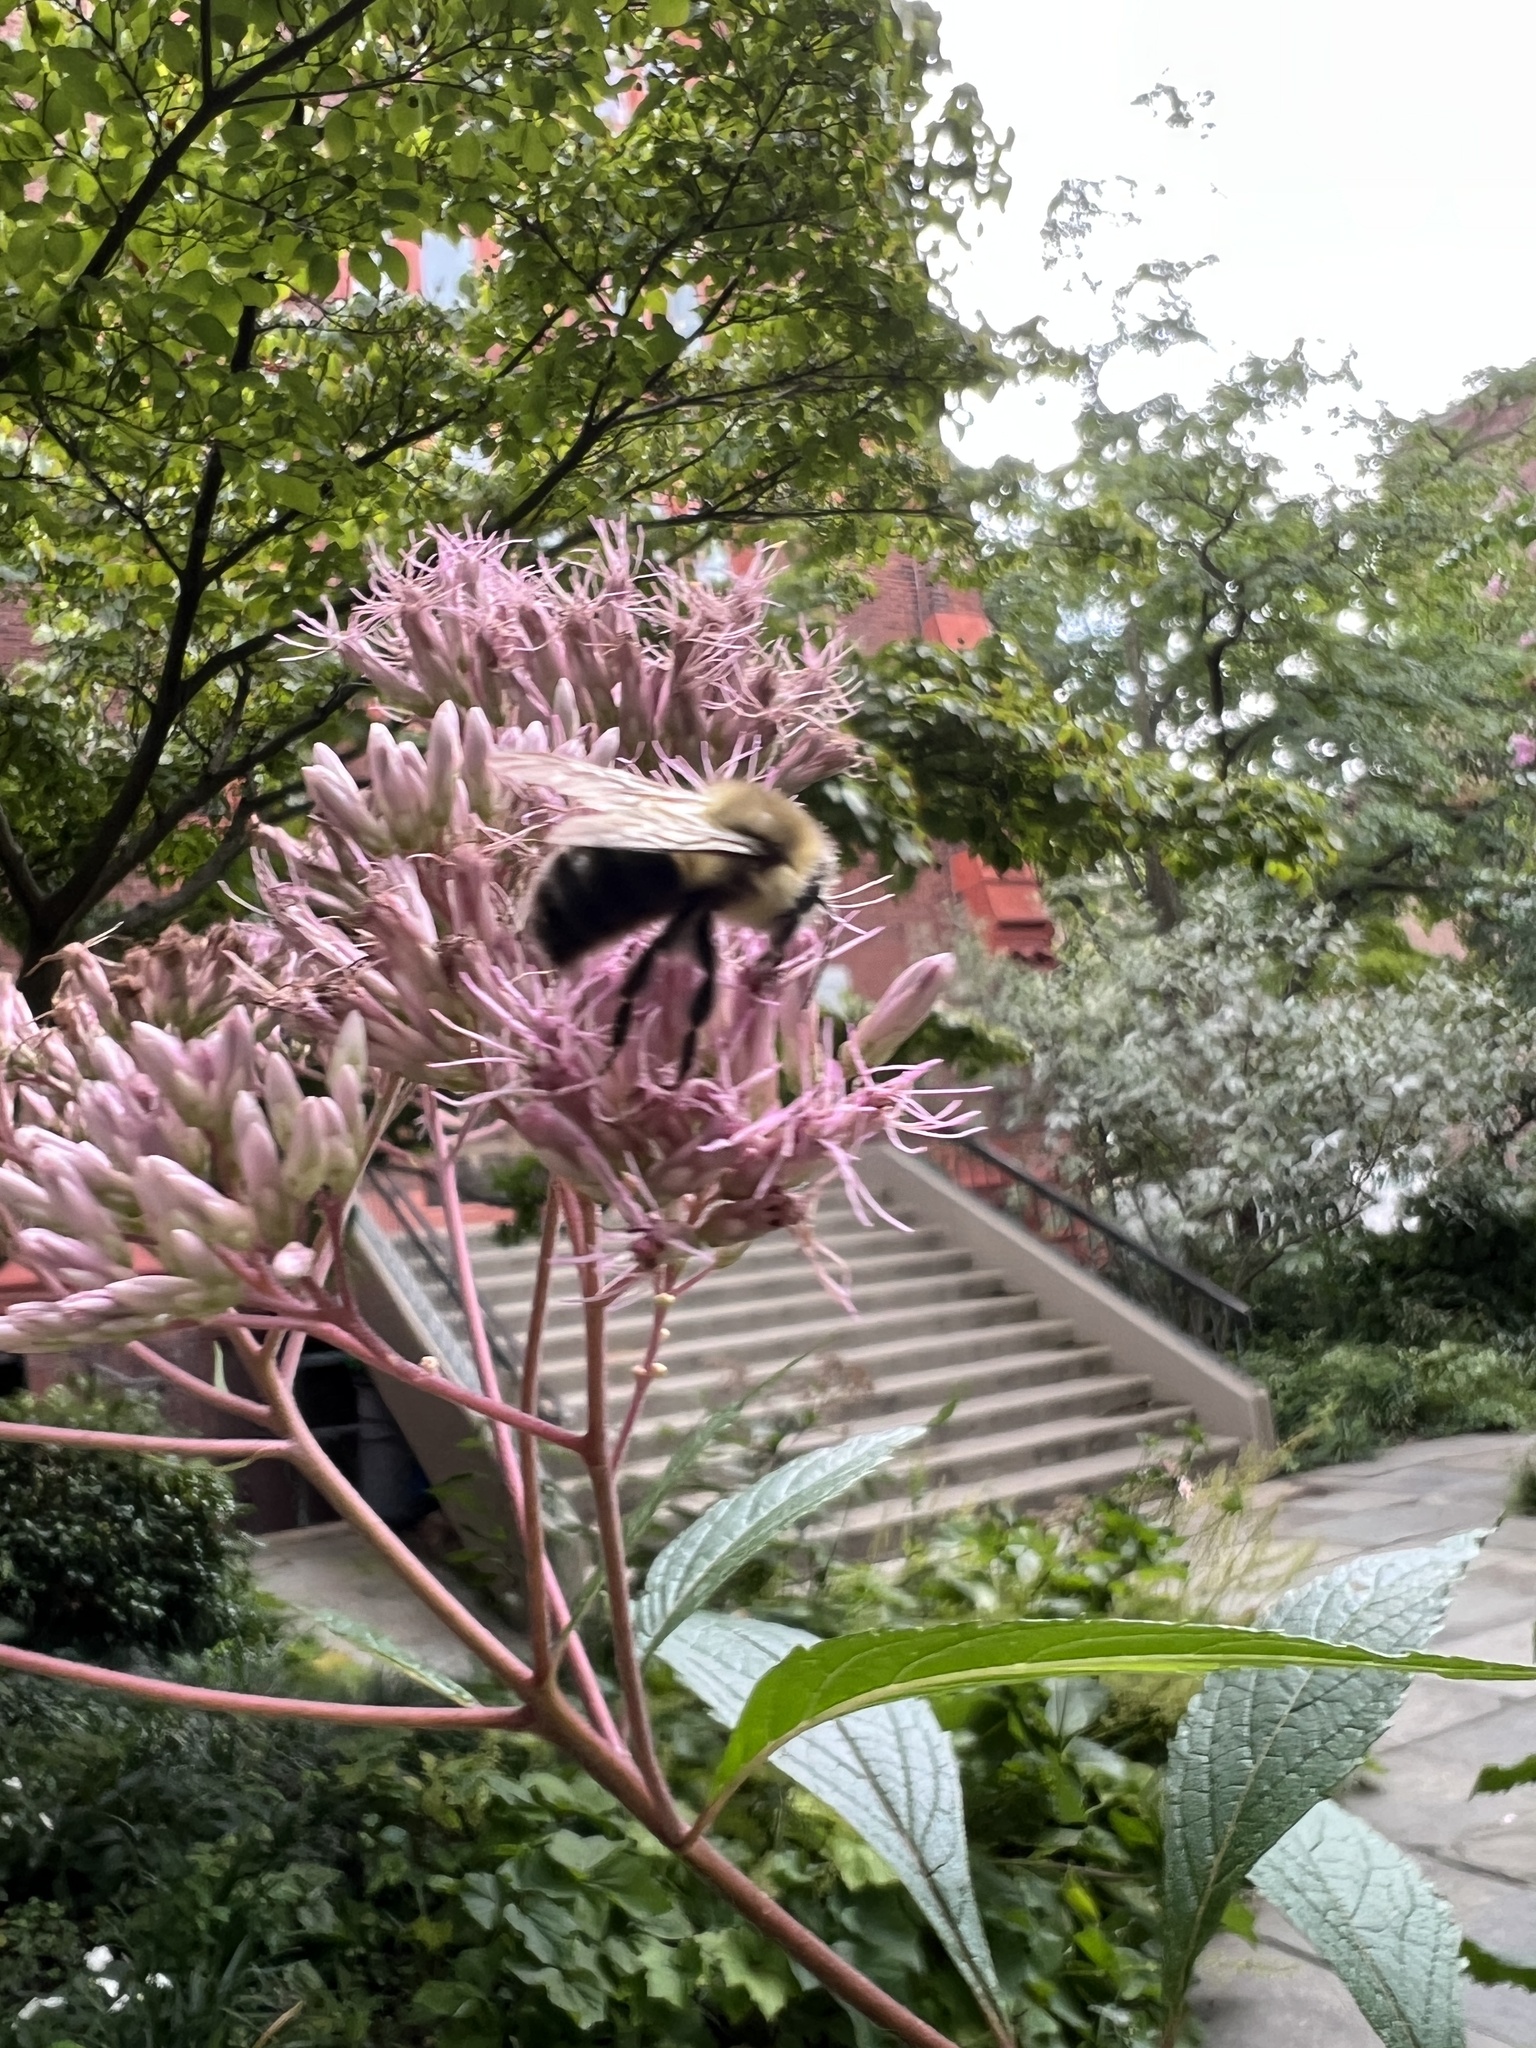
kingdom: Animalia
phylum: Arthropoda
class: Insecta
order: Hymenoptera
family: Apidae
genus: Bombus
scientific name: Bombus impatiens
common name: Common eastern bumble bee
